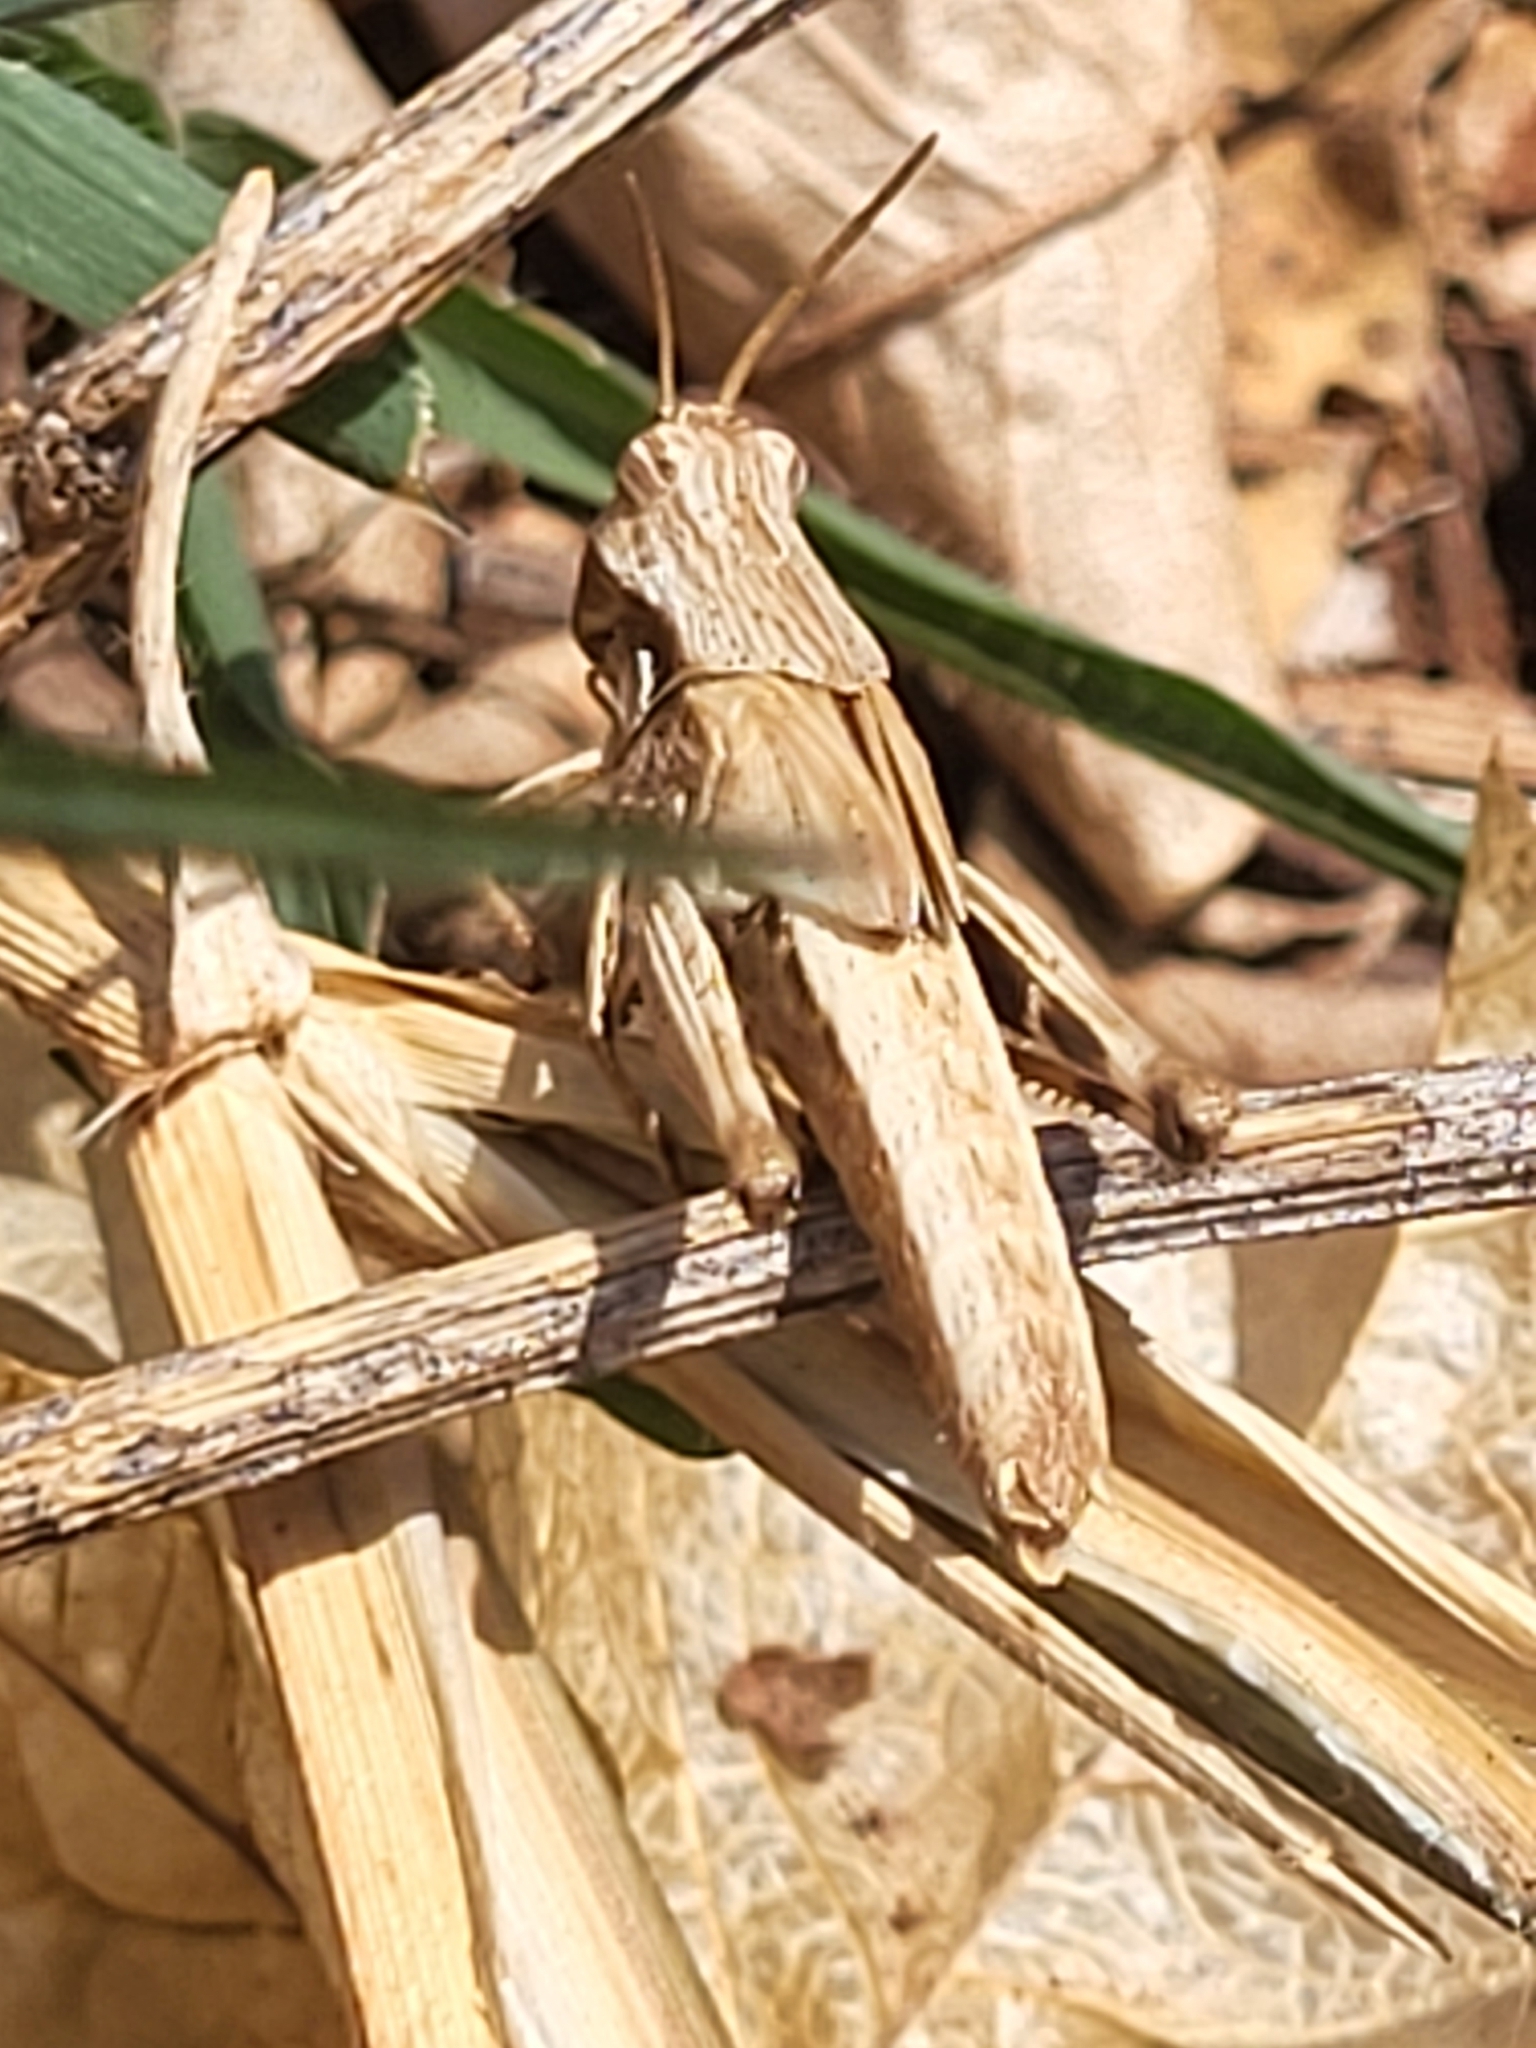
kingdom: Animalia
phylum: Arthropoda
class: Insecta
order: Orthoptera
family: Acrididae
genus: Morphacris
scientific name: Morphacris fasciata
